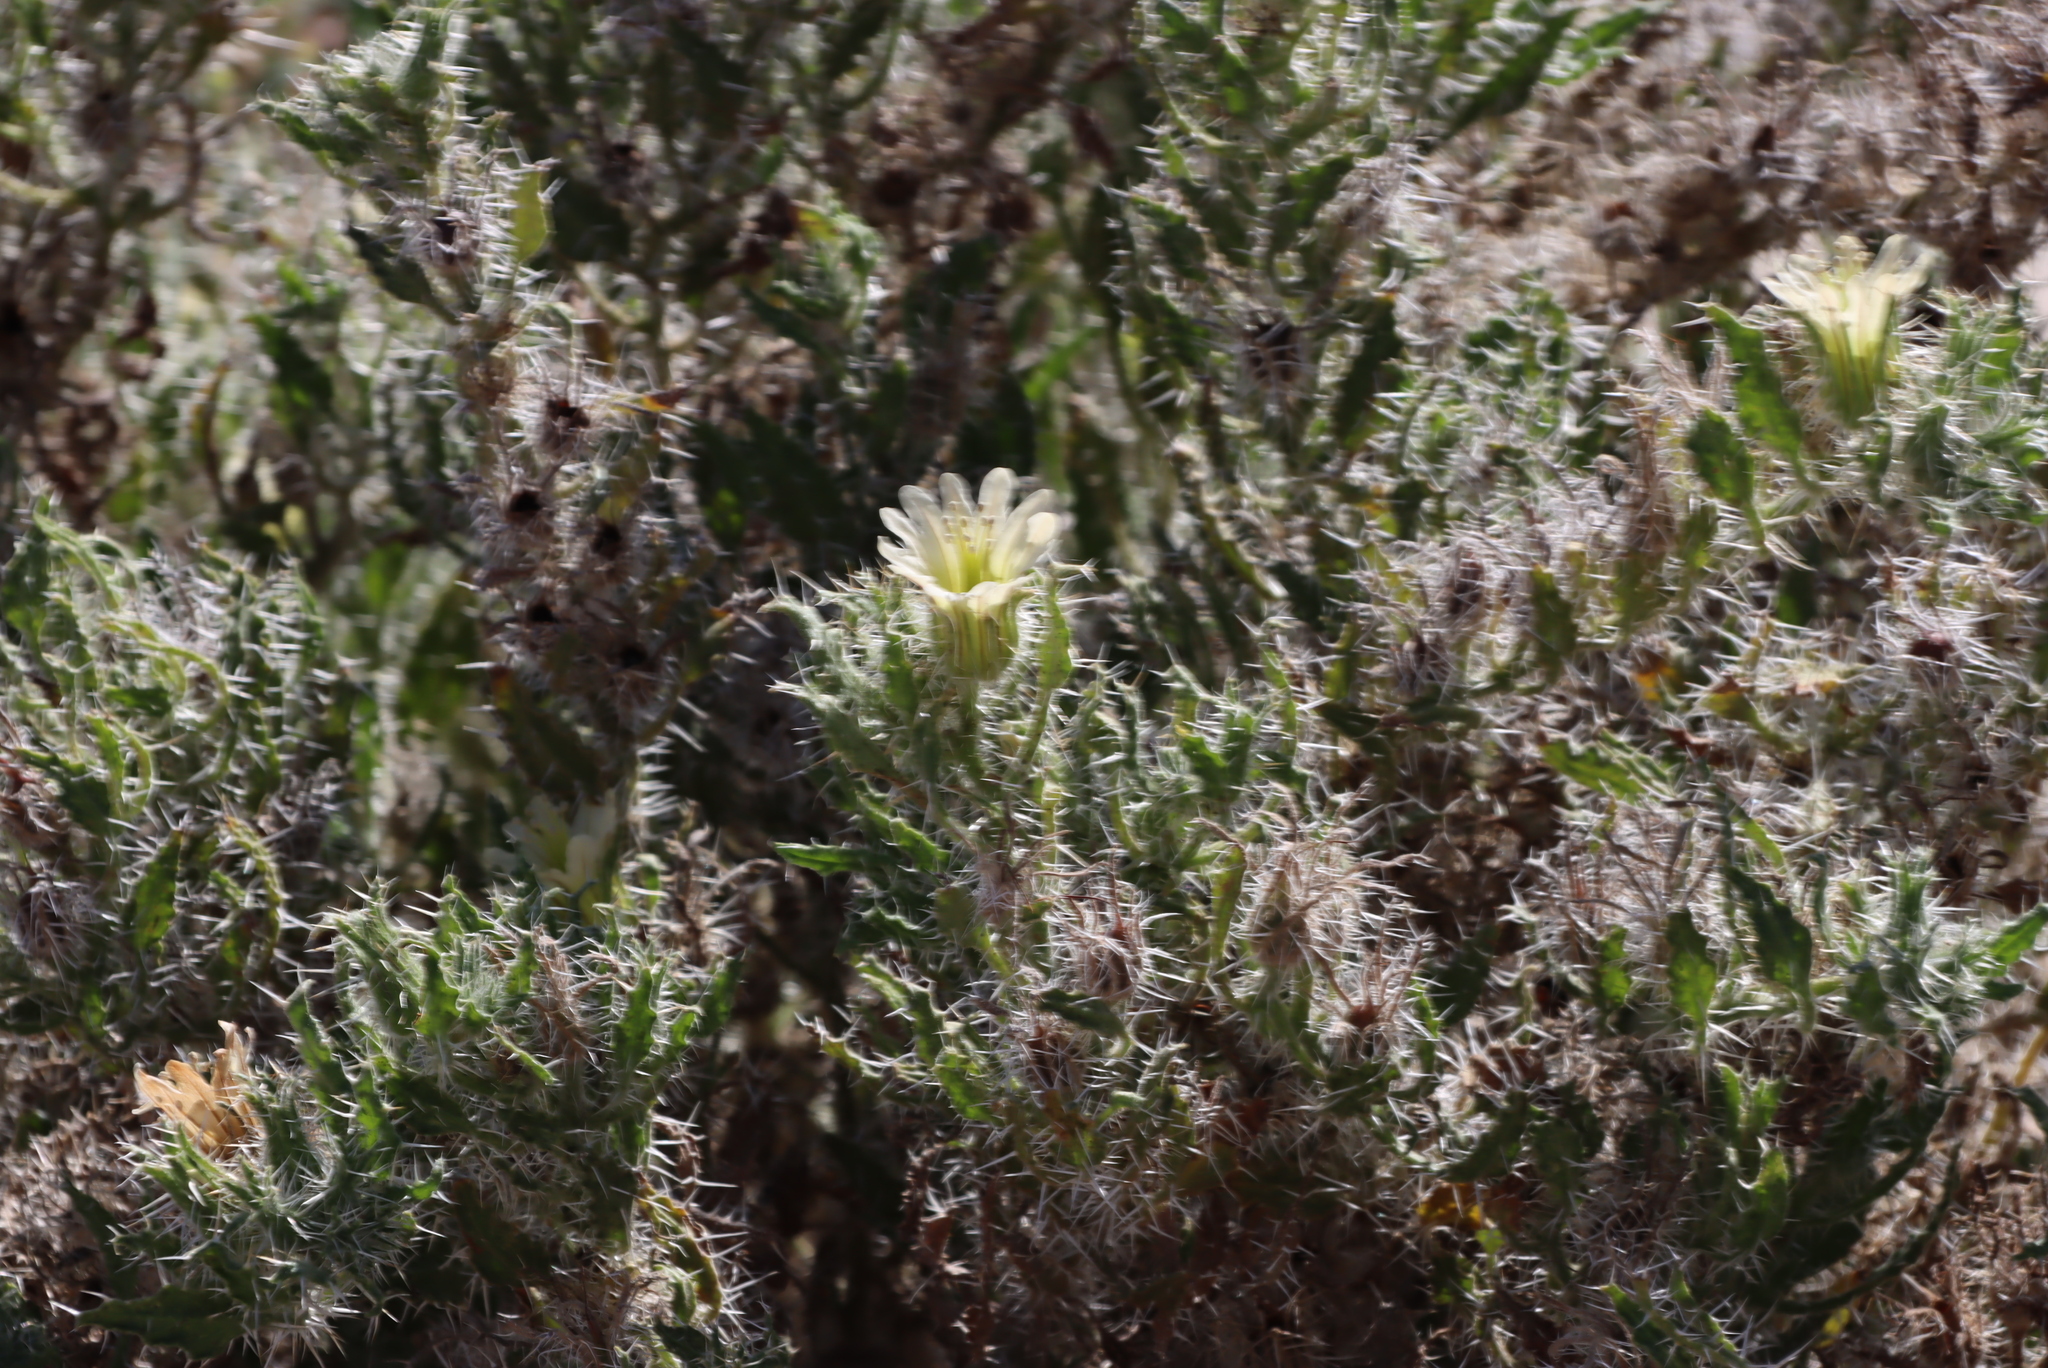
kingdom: Plantae
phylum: Tracheophyta
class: Magnoliopsida
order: Boraginales
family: Boraginaceae
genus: Codon
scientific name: Codon royenii
